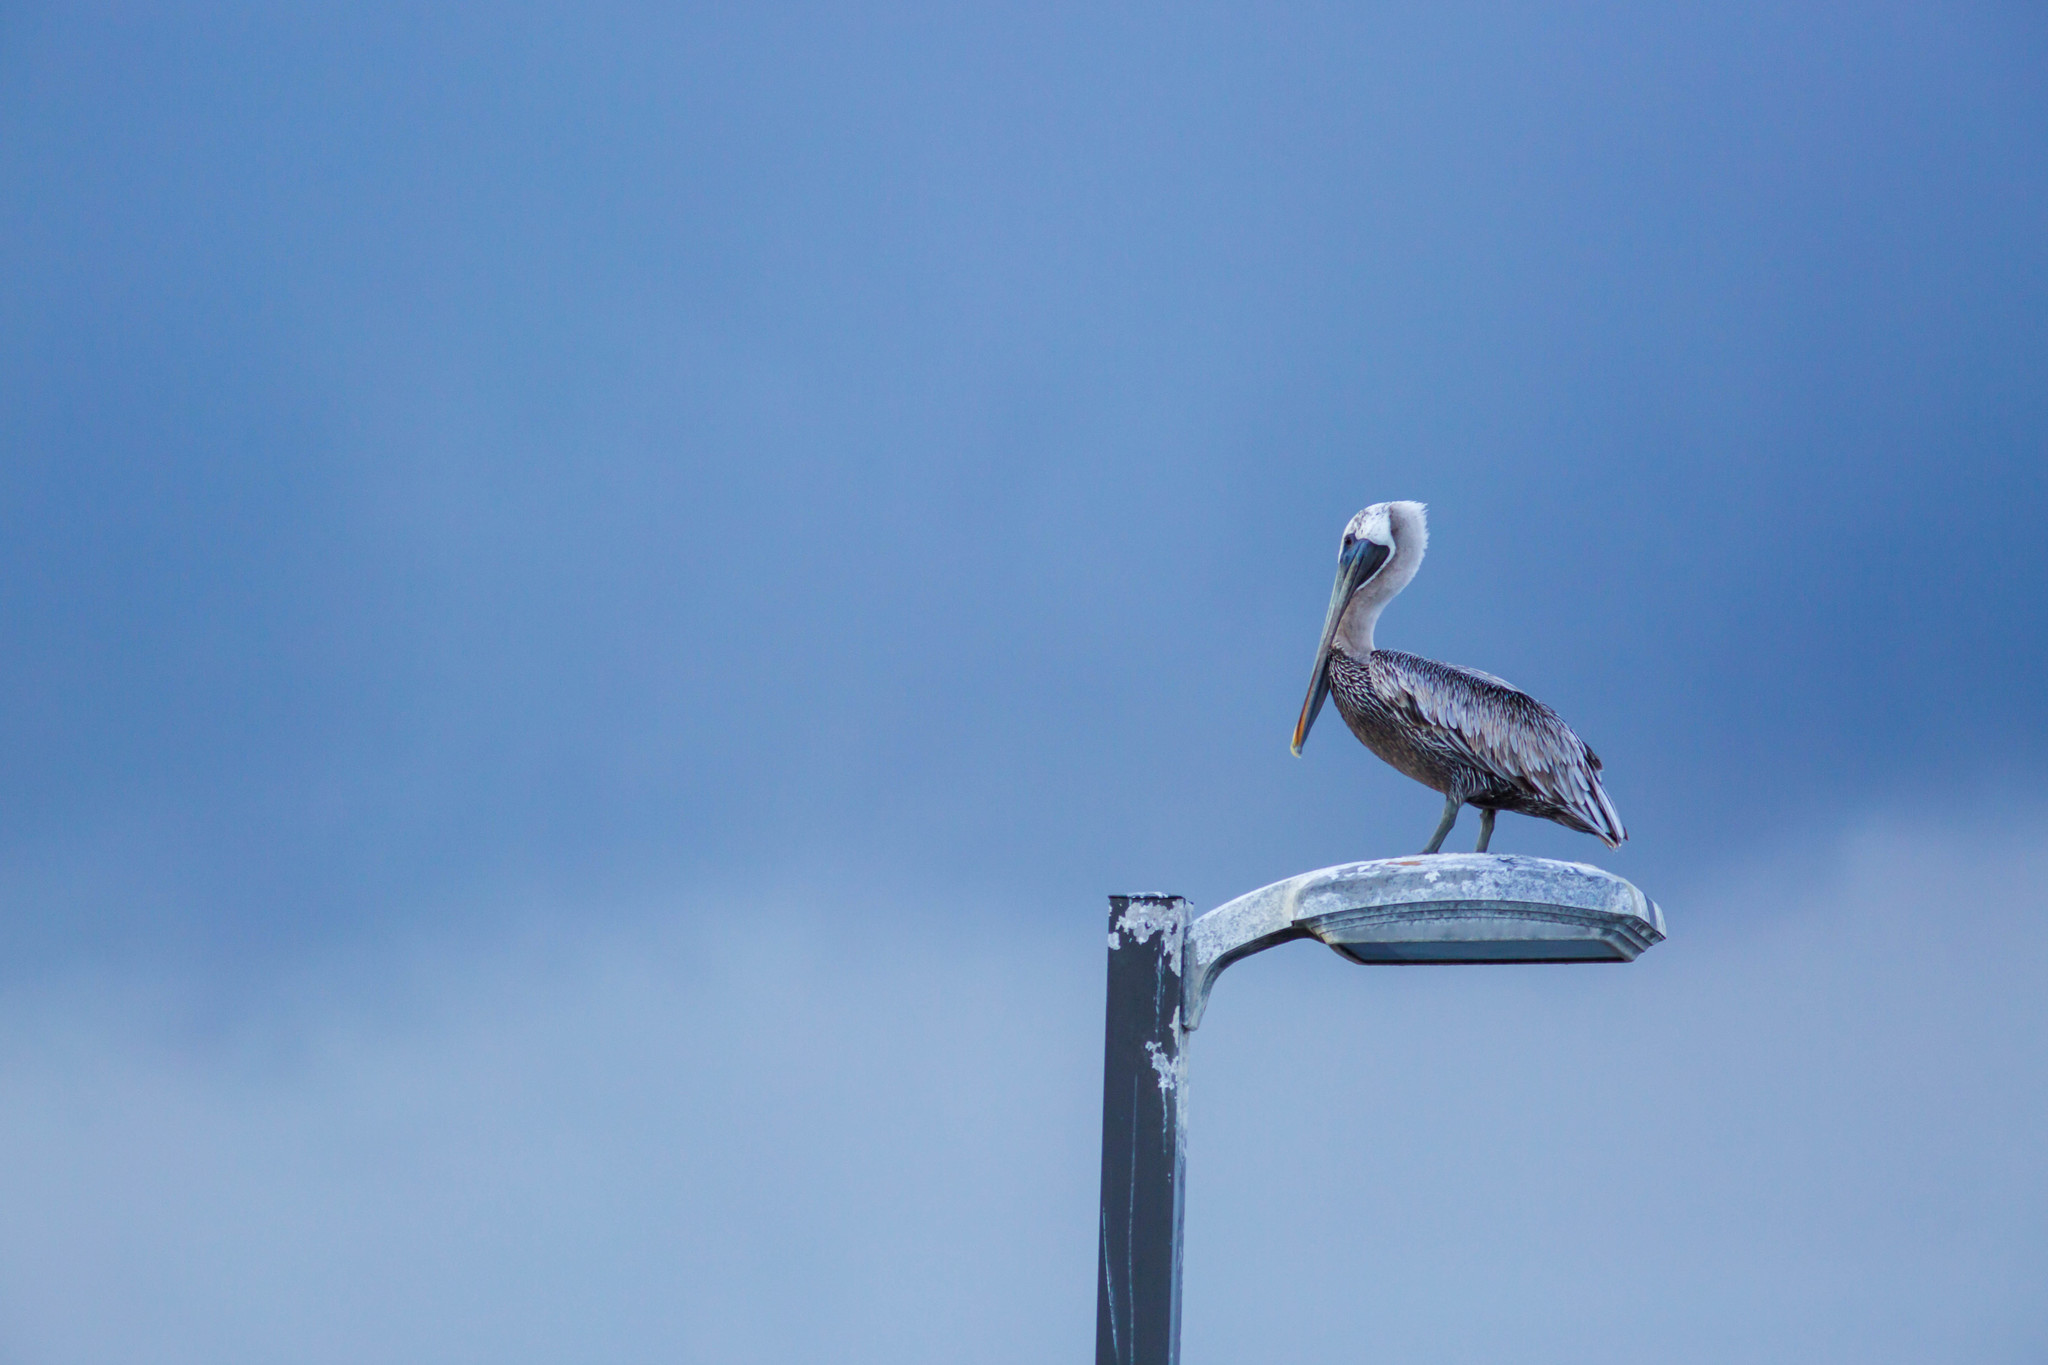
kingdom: Animalia
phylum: Chordata
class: Aves
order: Pelecaniformes
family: Pelecanidae
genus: Pelecanus
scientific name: Pelecanus occidentalis
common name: Brown pelican
